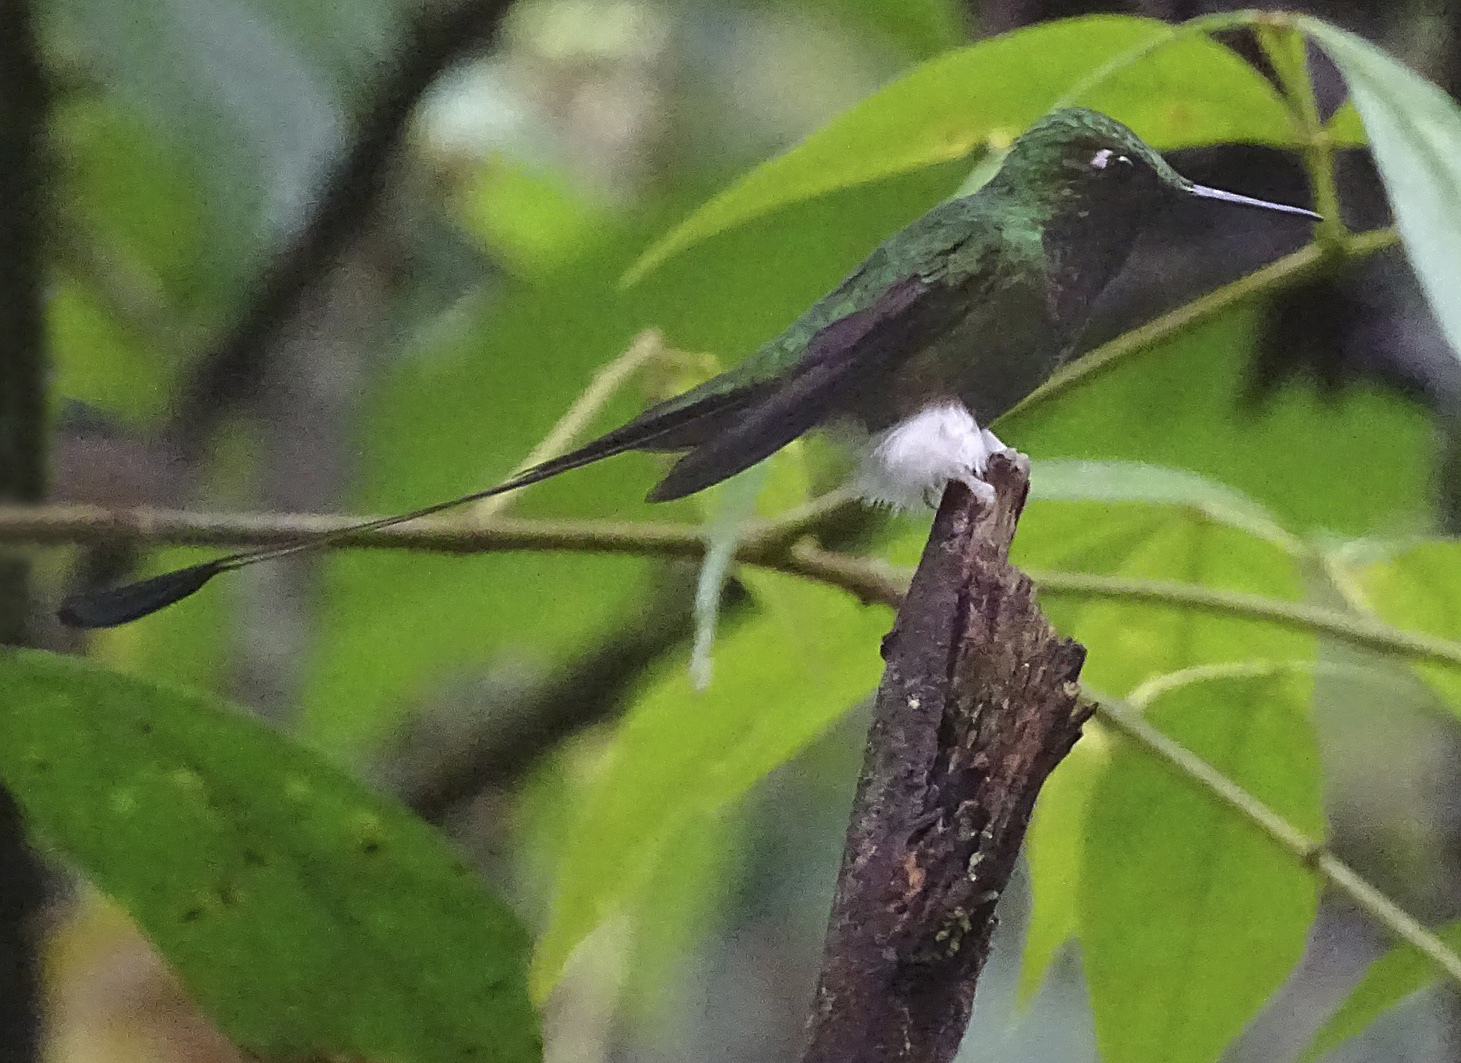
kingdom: Animalia
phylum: Chordata
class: Aves
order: Apodiformes
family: Trochilidae
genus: Ocreatus
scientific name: Ocreatus underwoodii
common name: Booted racket-tail
